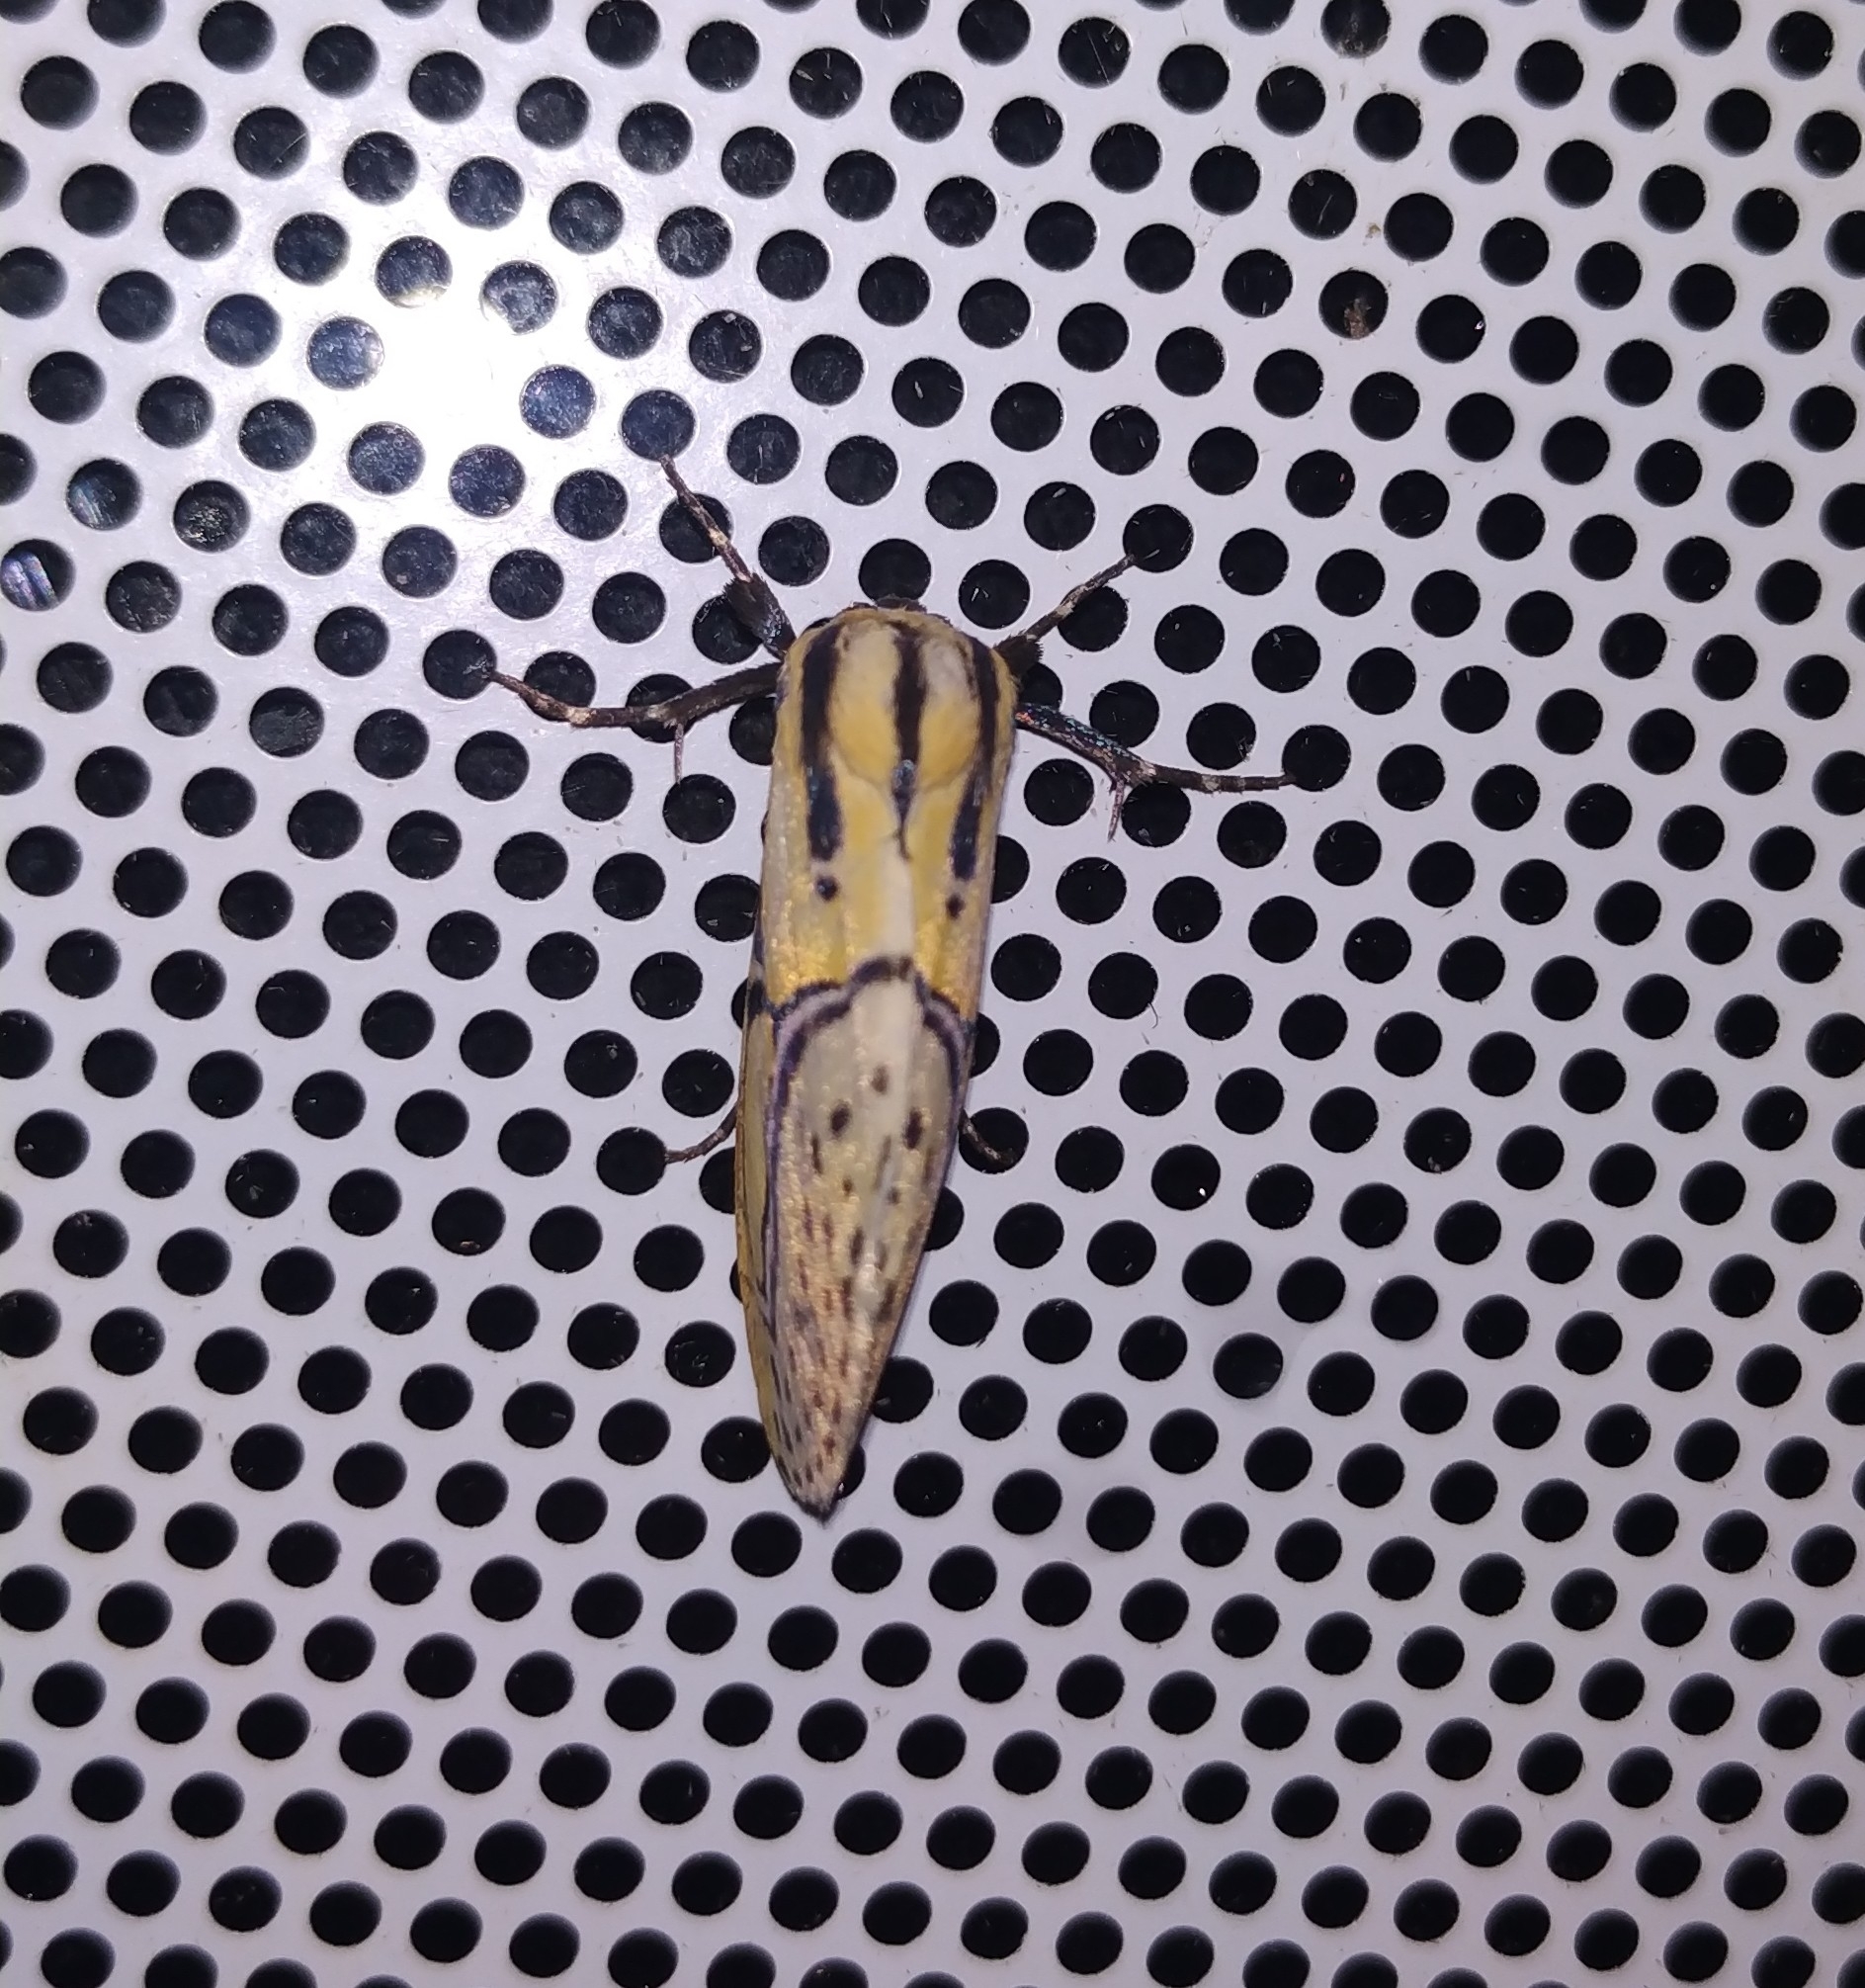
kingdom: Animalia
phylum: Arthropoda
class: Insecta
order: Lepidoptera
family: Erebidae
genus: Diphthera
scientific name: Diphthera festiva
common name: Hieroglyphic moth
